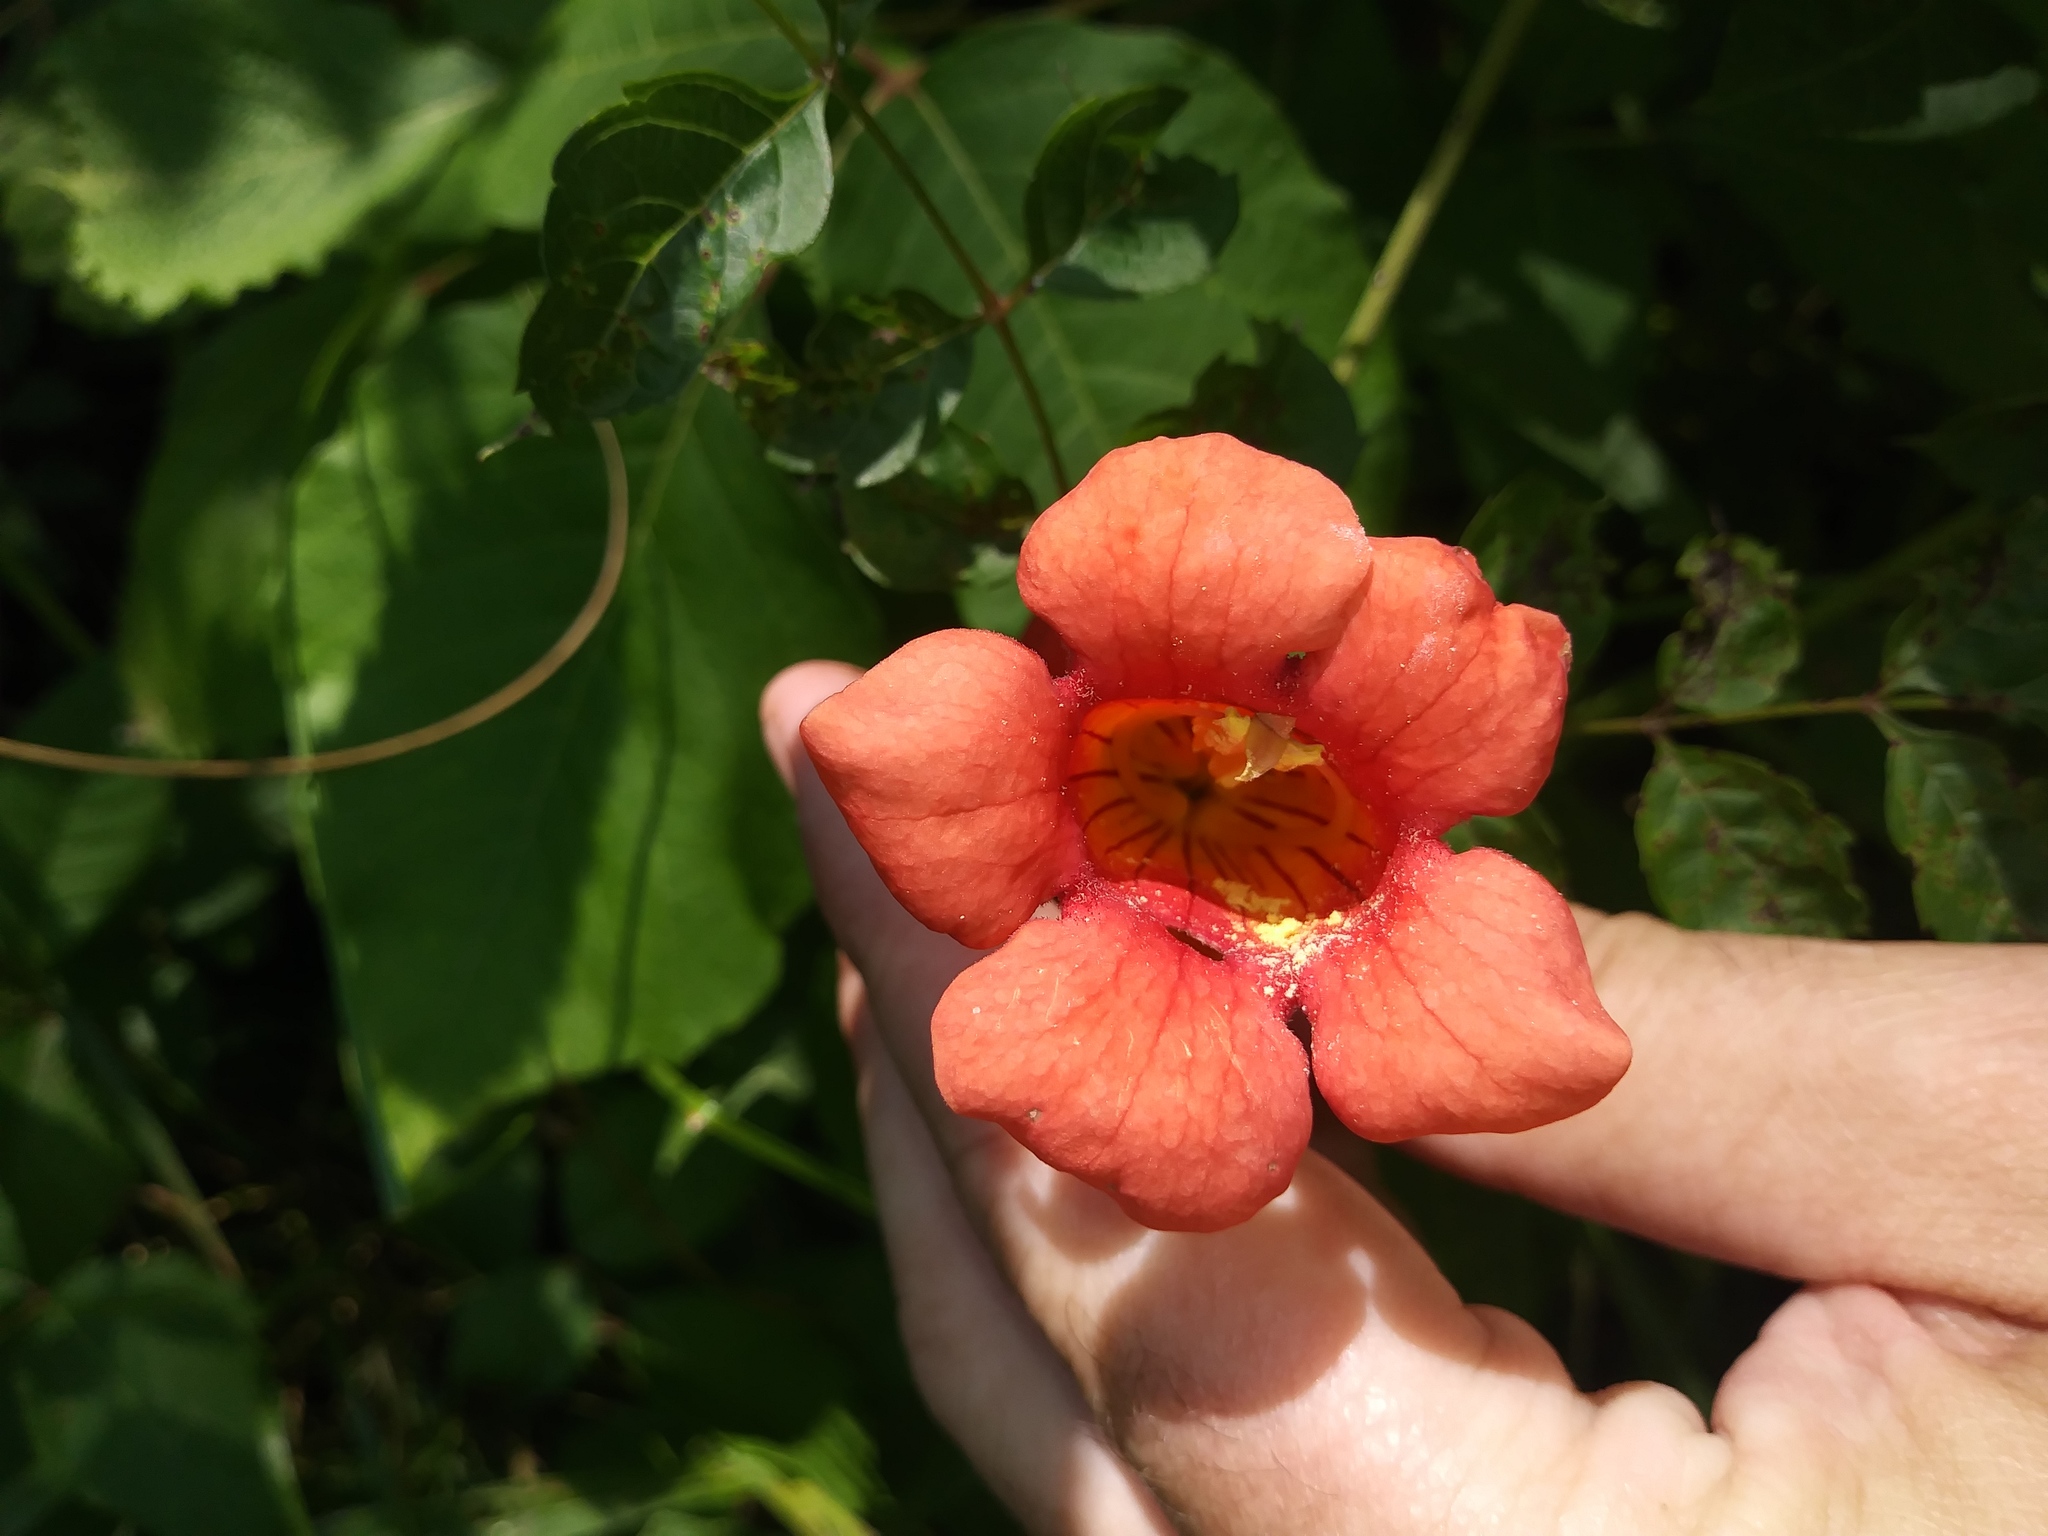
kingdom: Plantae
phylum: Tracheophyta
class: Magnoliopsida
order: Lamiales
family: Bignoniaceae
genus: Campsis
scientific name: Campsis radicans
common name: Trumpet-creeper
